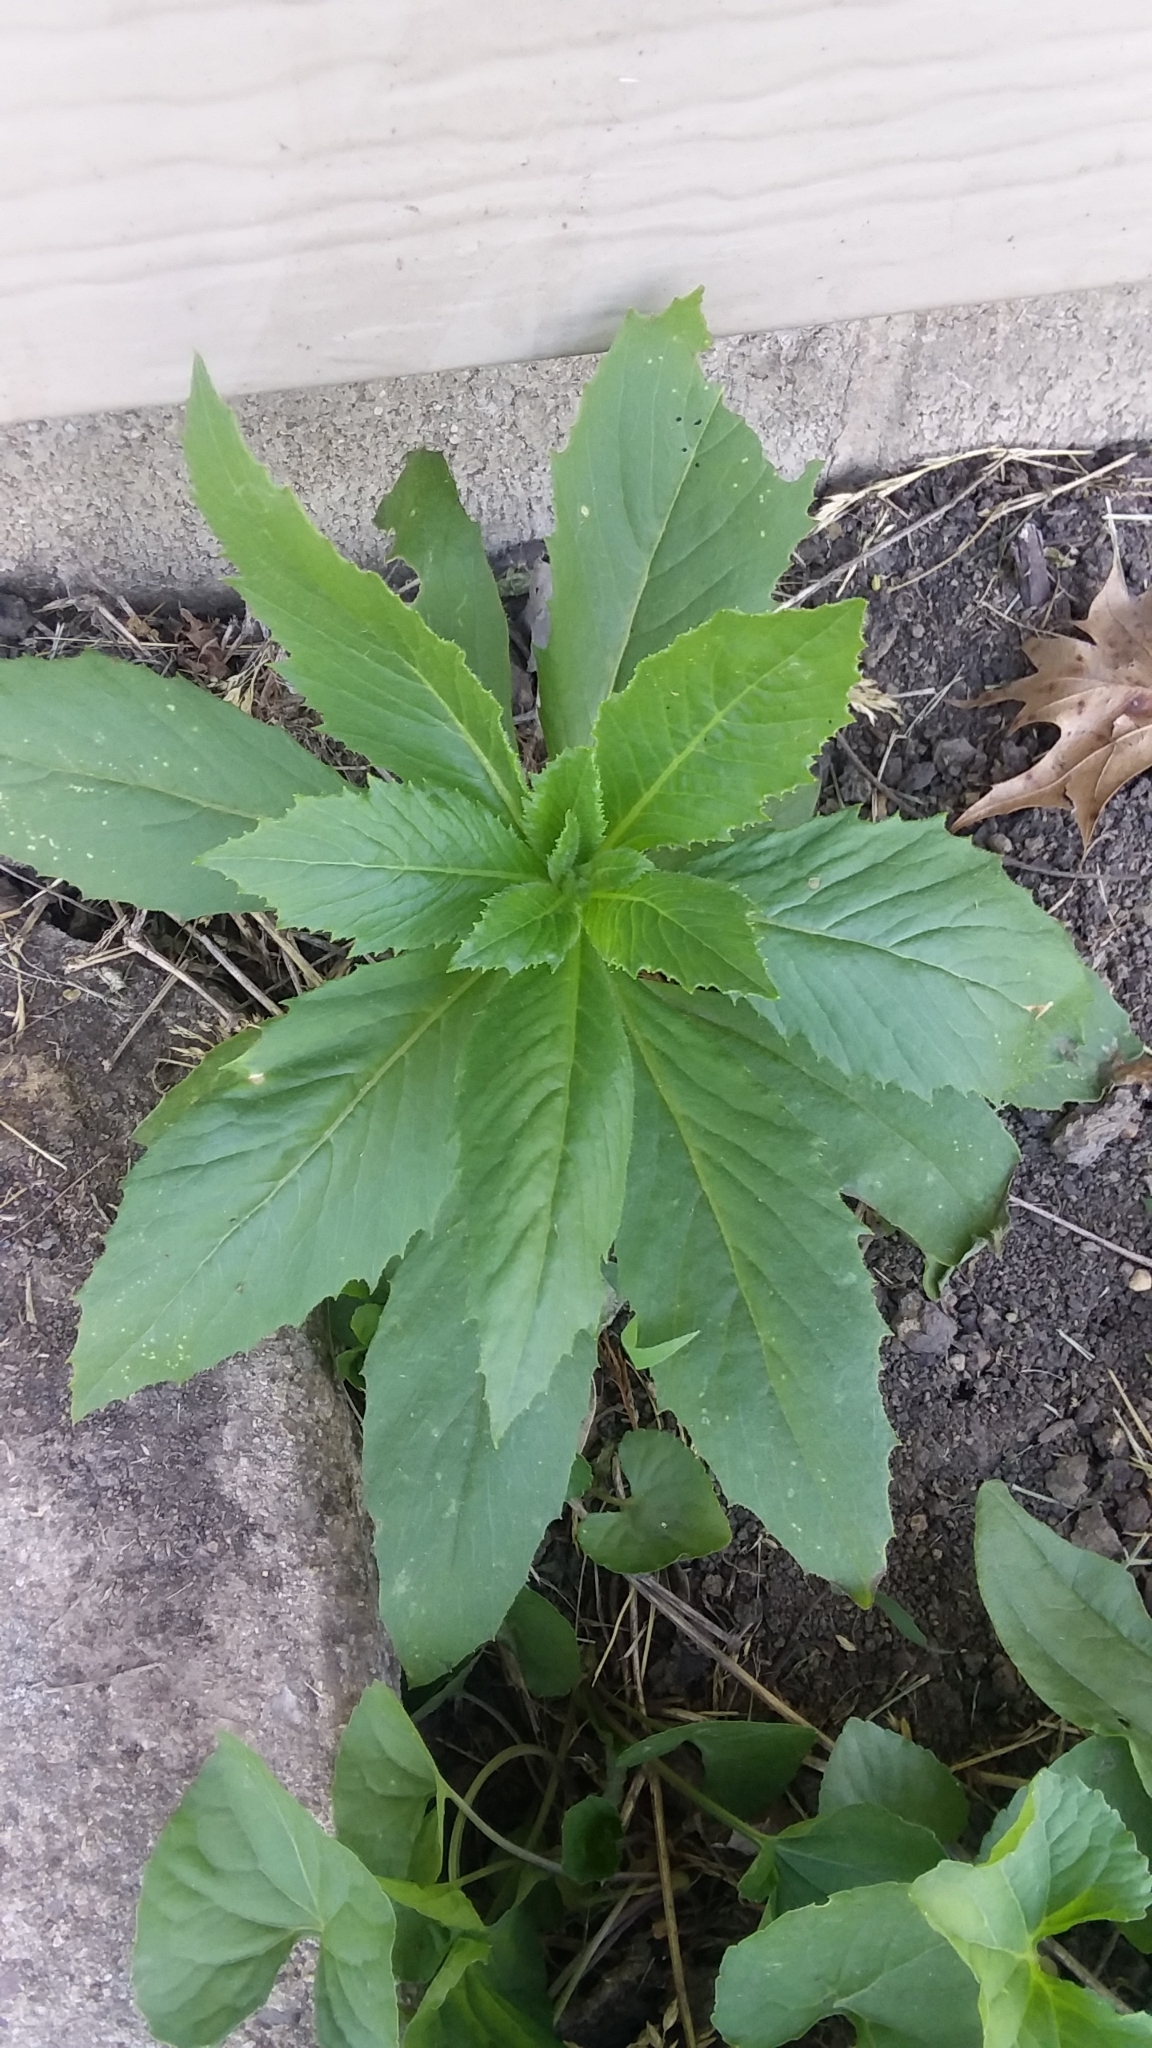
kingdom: Plantae
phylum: Tracheophyta
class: Magnoliopsida
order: Asterales
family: Asteraceae
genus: Erechtites
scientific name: Erechtites hieraciifolius
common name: American burnweed
